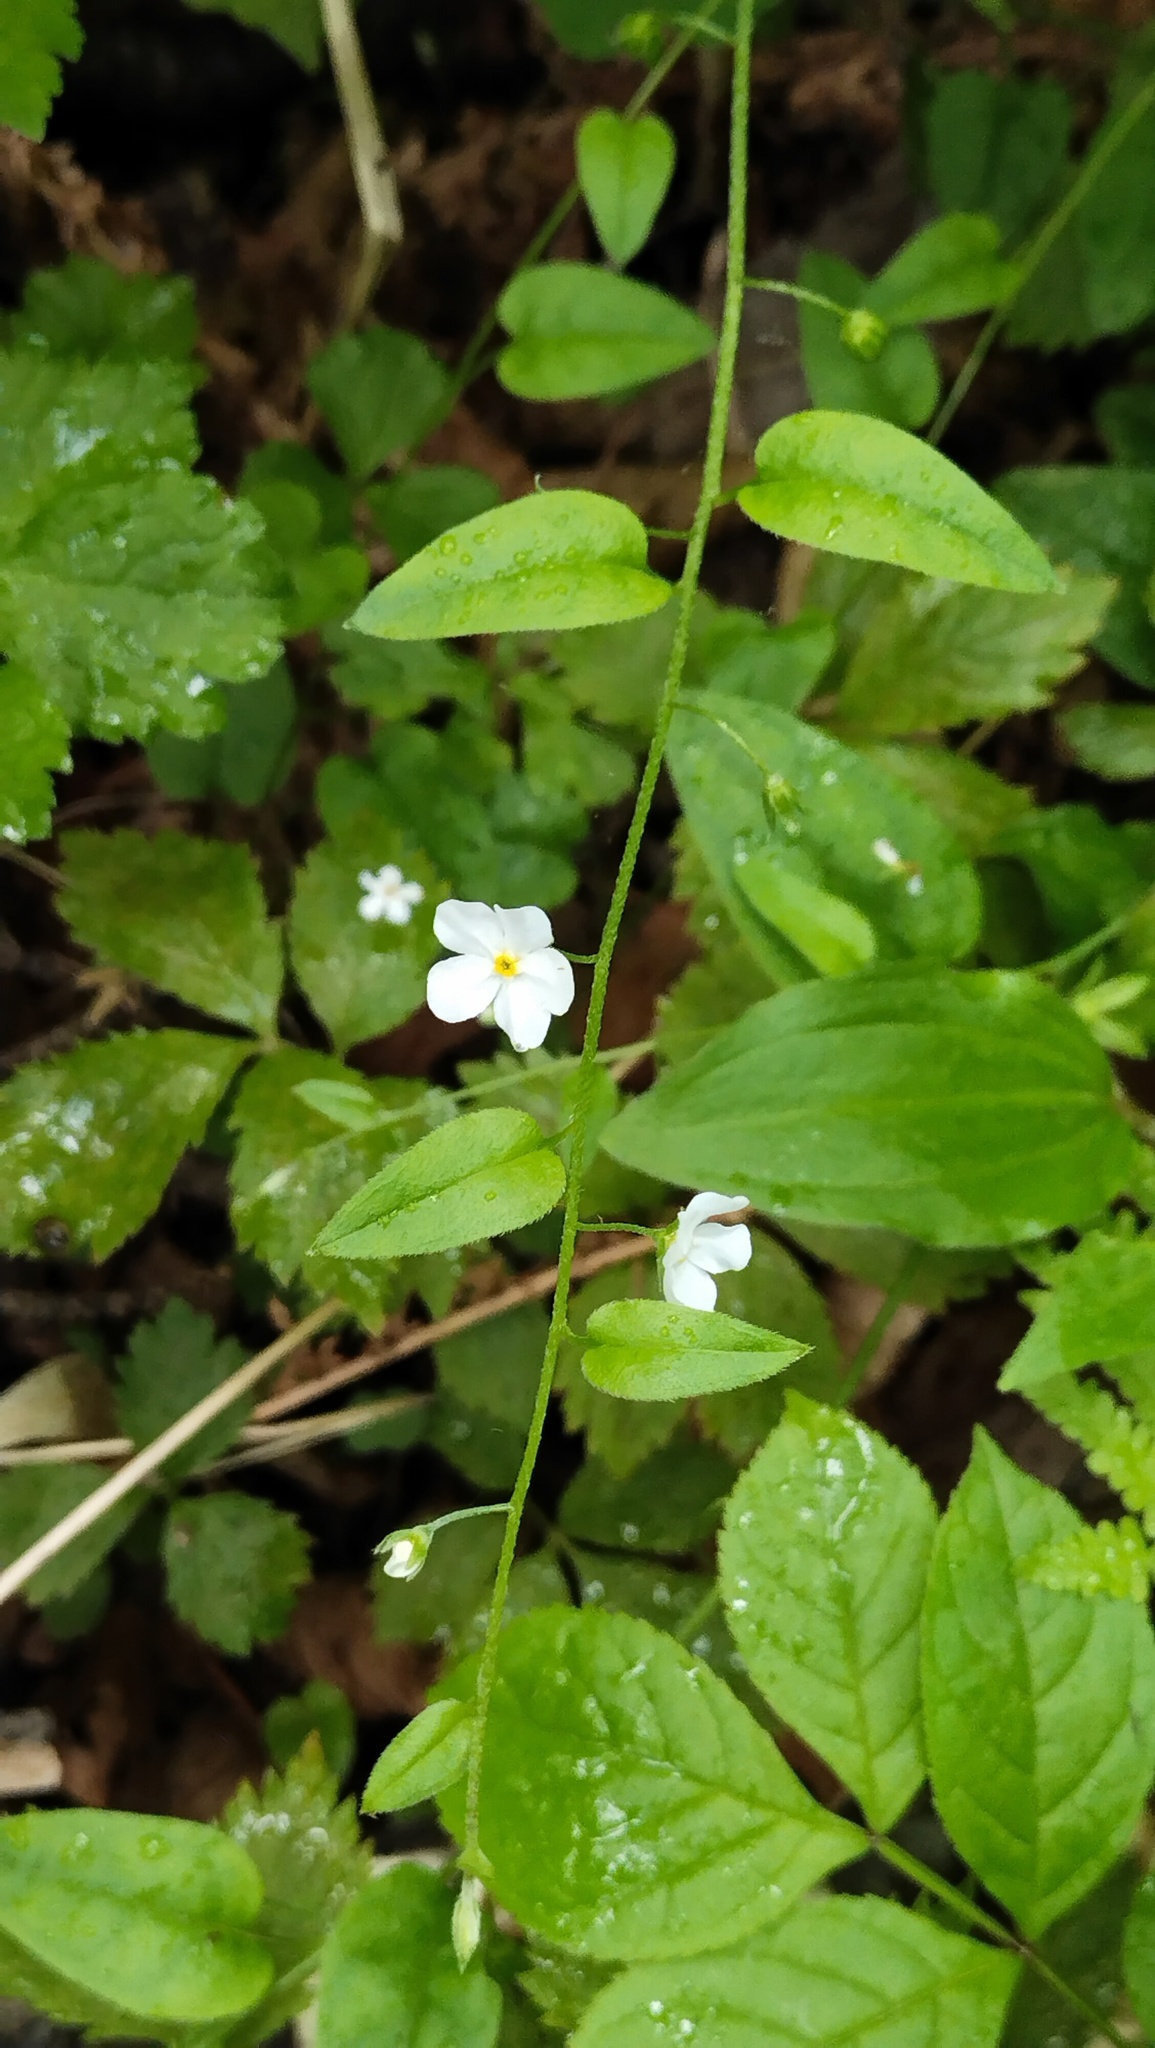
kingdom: Plantae
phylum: Tracheophyta
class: Magnoliopsida
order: Boraginales
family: Boraginaceae
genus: Trigonotis
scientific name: Trigonotis radicans
